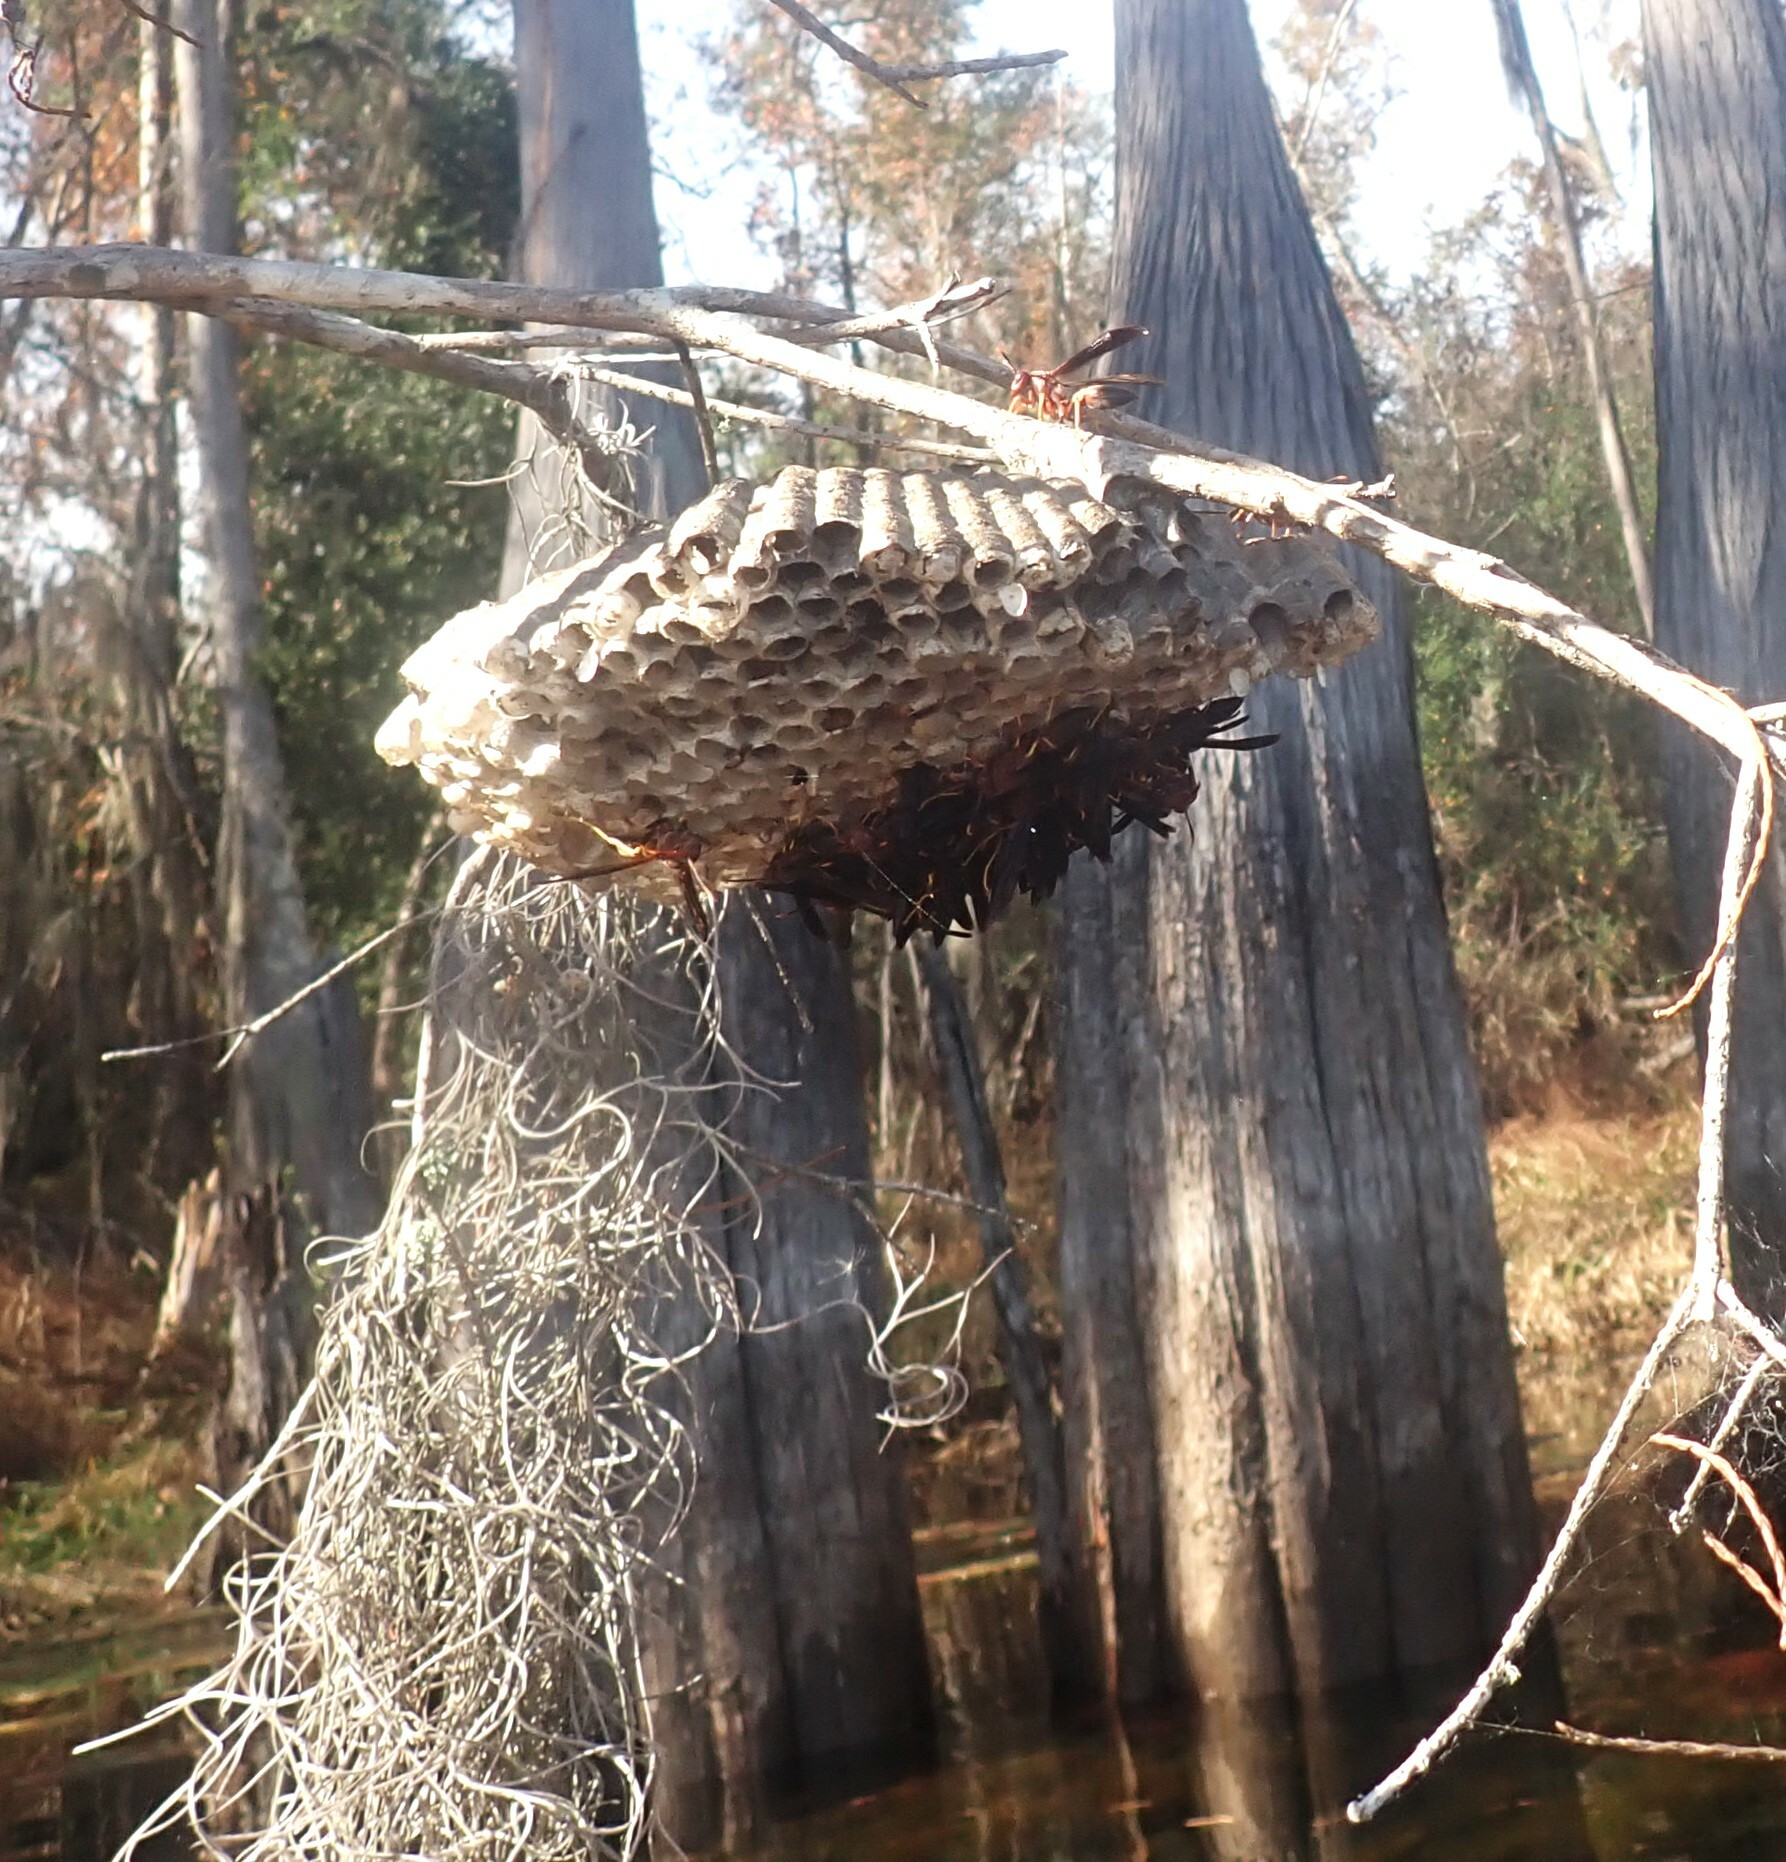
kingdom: Animalia
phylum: Arthropoda
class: Insecta
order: Hymenoptera
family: Eumenidae
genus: Polistes
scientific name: Polistes annularis
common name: Ringed paper wasp
